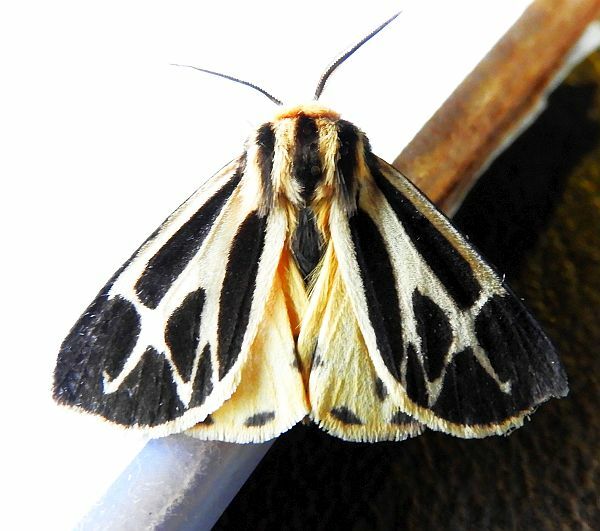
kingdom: Animalia
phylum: Arthropoda
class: Insecta
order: Lepidoptera
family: Erebidae
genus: Apantesis
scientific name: Apantesis carlotta
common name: Carlotta's tiger moth
